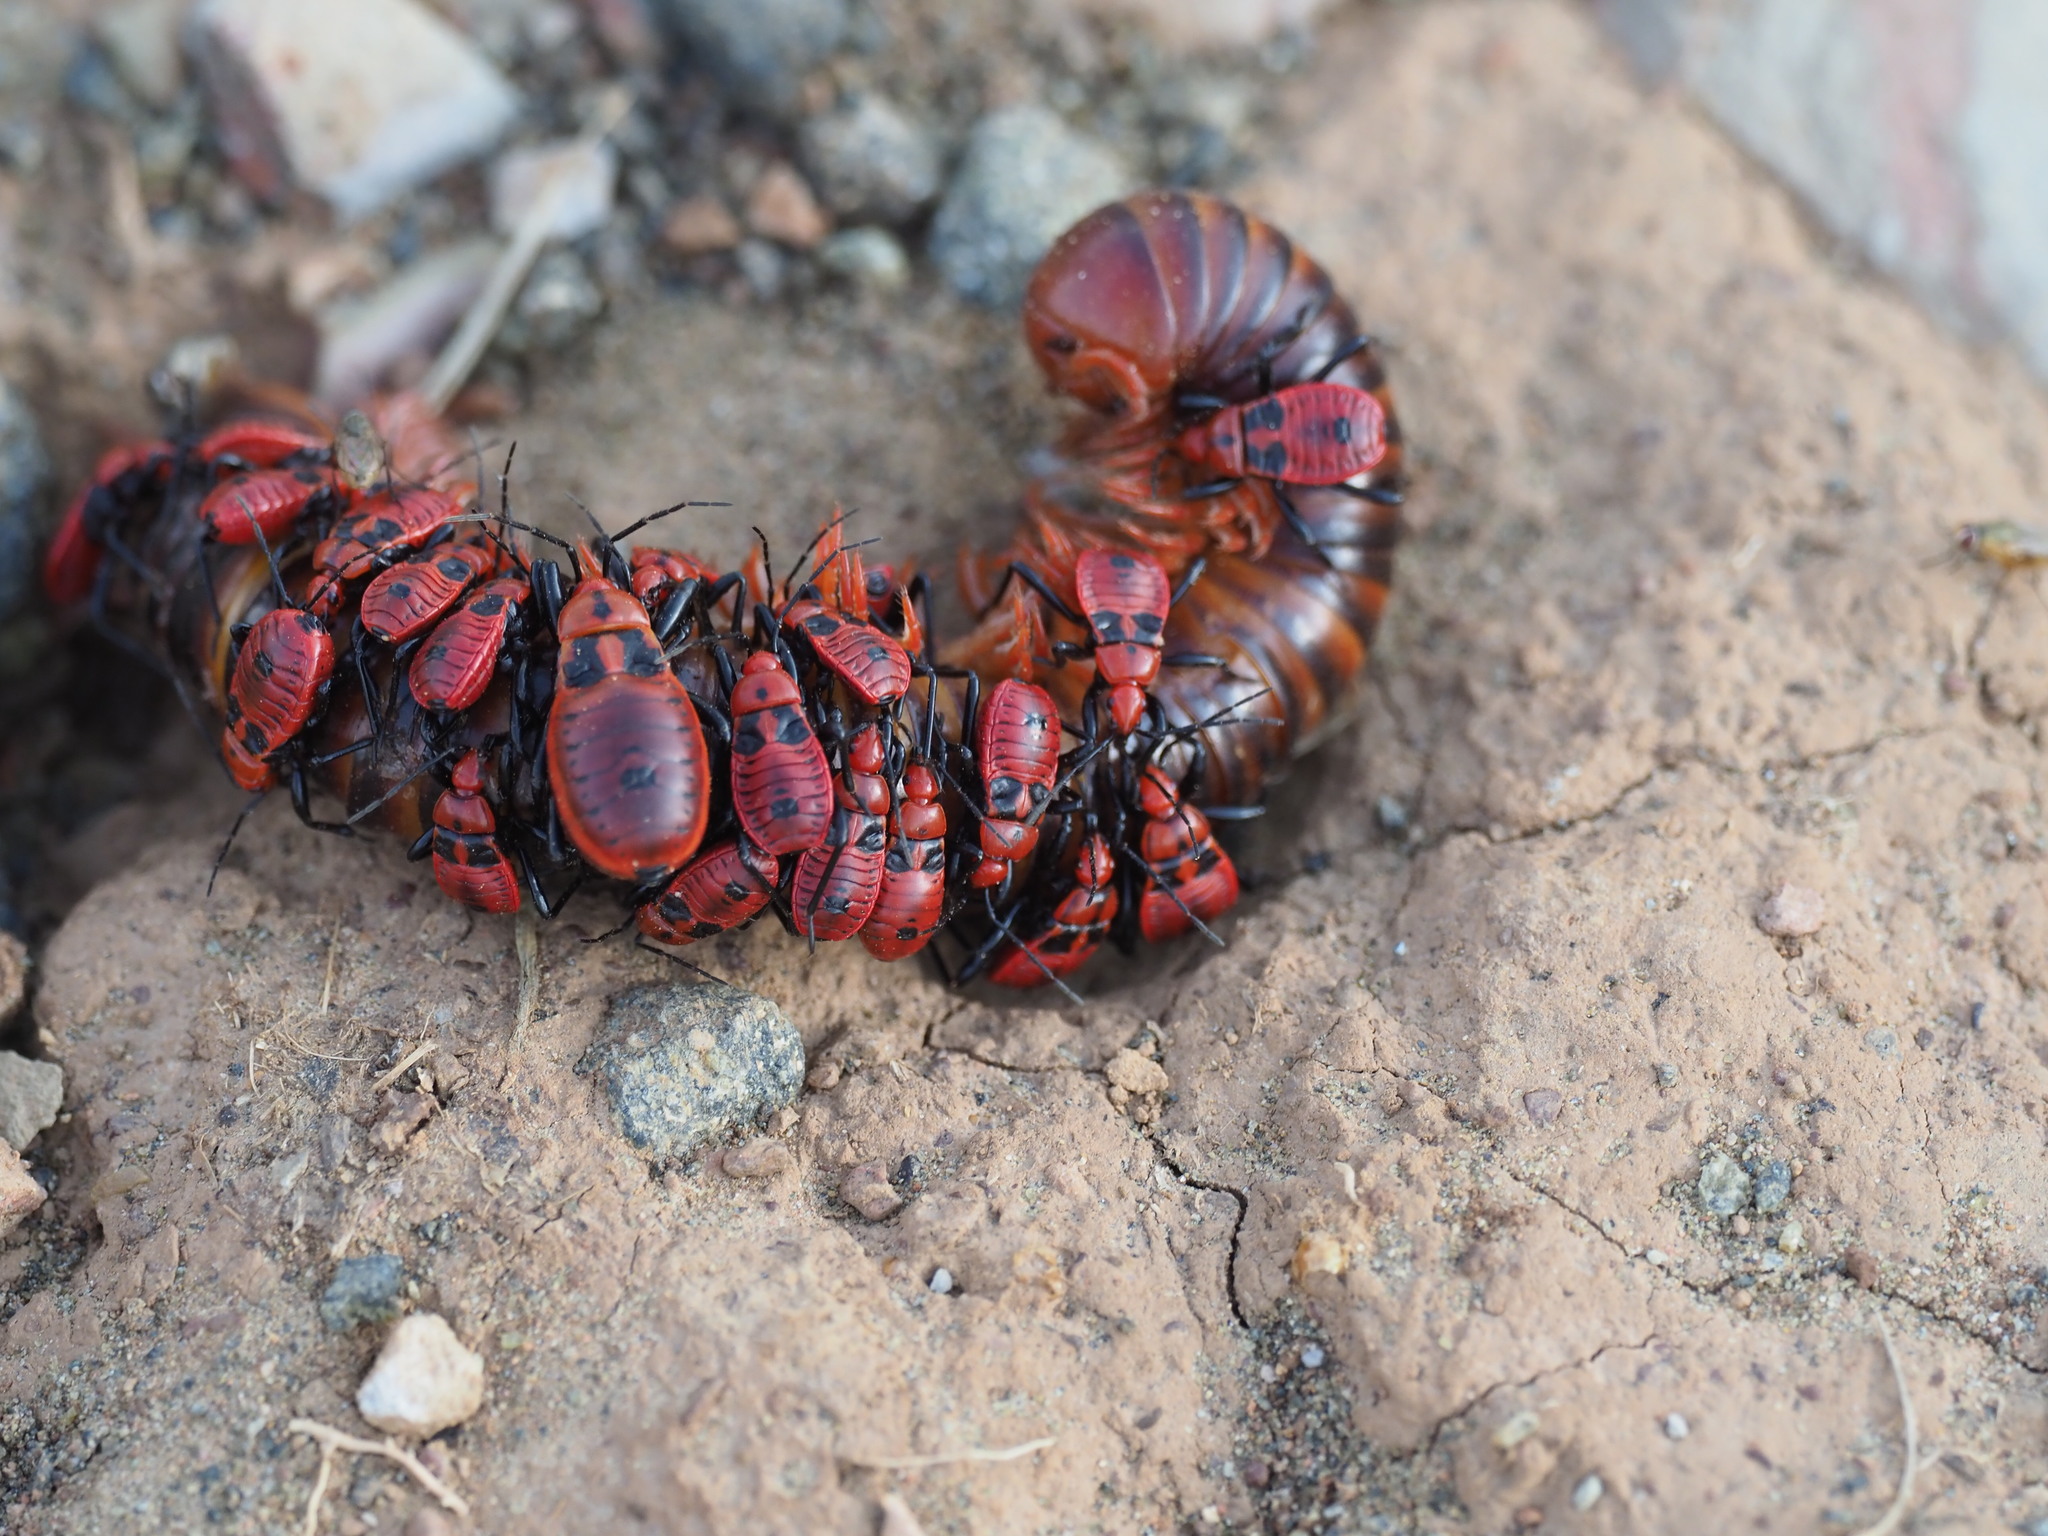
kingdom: Animalia
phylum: Arthropoda
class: Insecta
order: Hemiptera
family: Reduviidae
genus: Ectrichodia
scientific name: Ectrichodia crux
